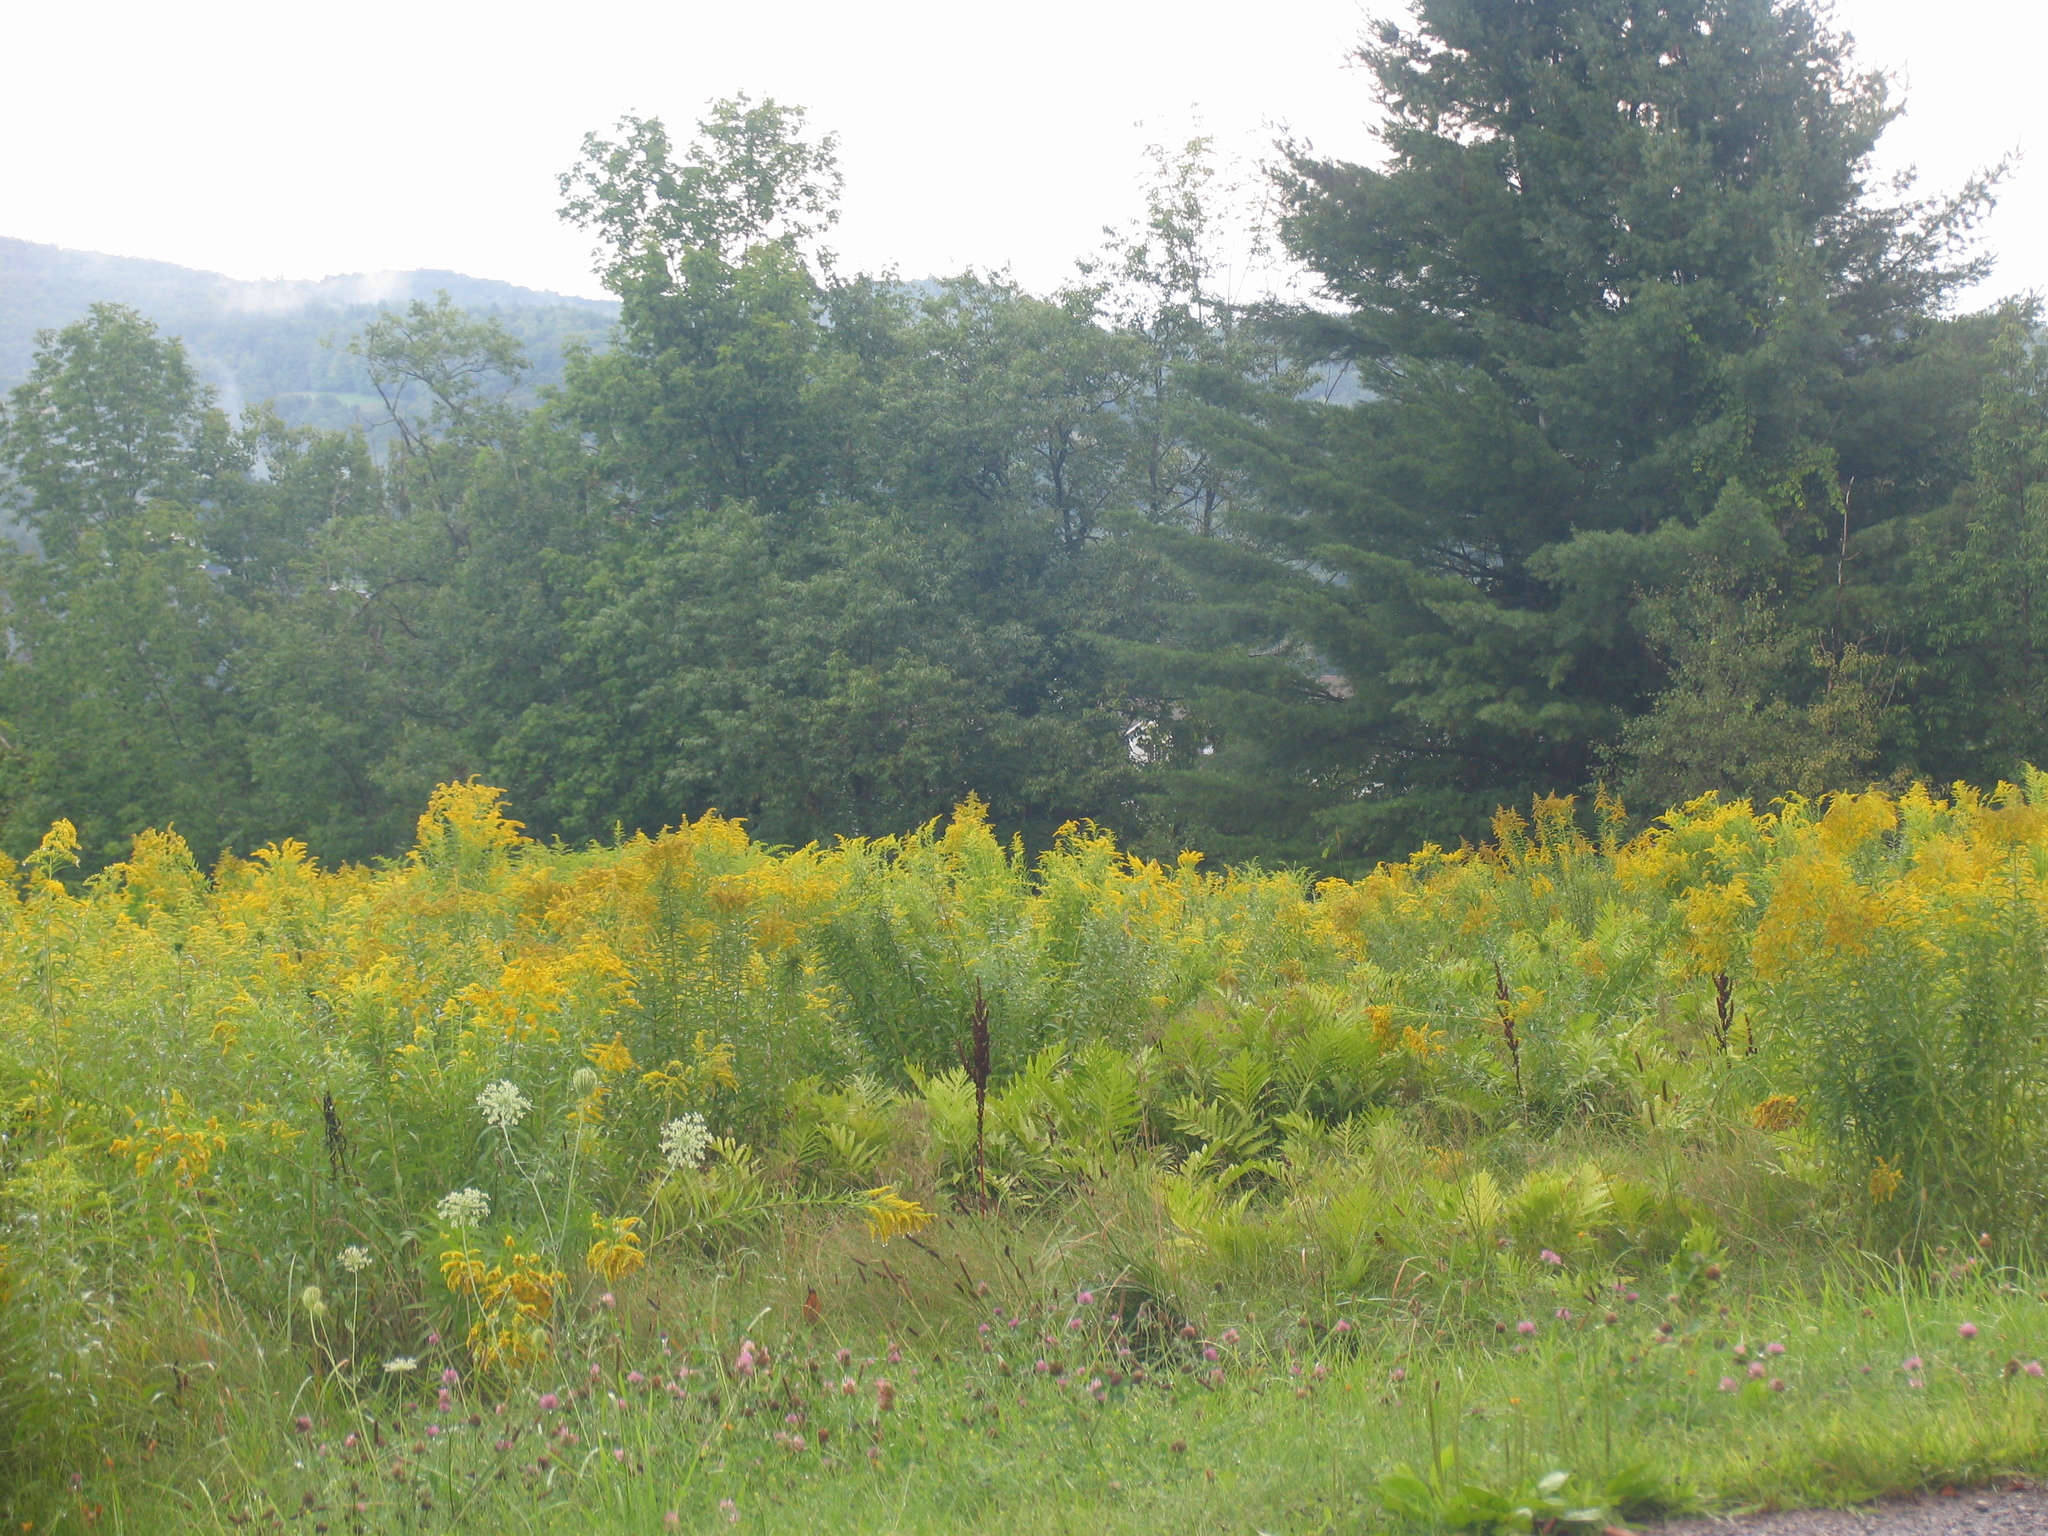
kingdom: Plantae
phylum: Tracheophyta
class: Pinopsida
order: Pinales
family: Pinaceae
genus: Pinus
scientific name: Pinus strobus
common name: Weymouth pine
